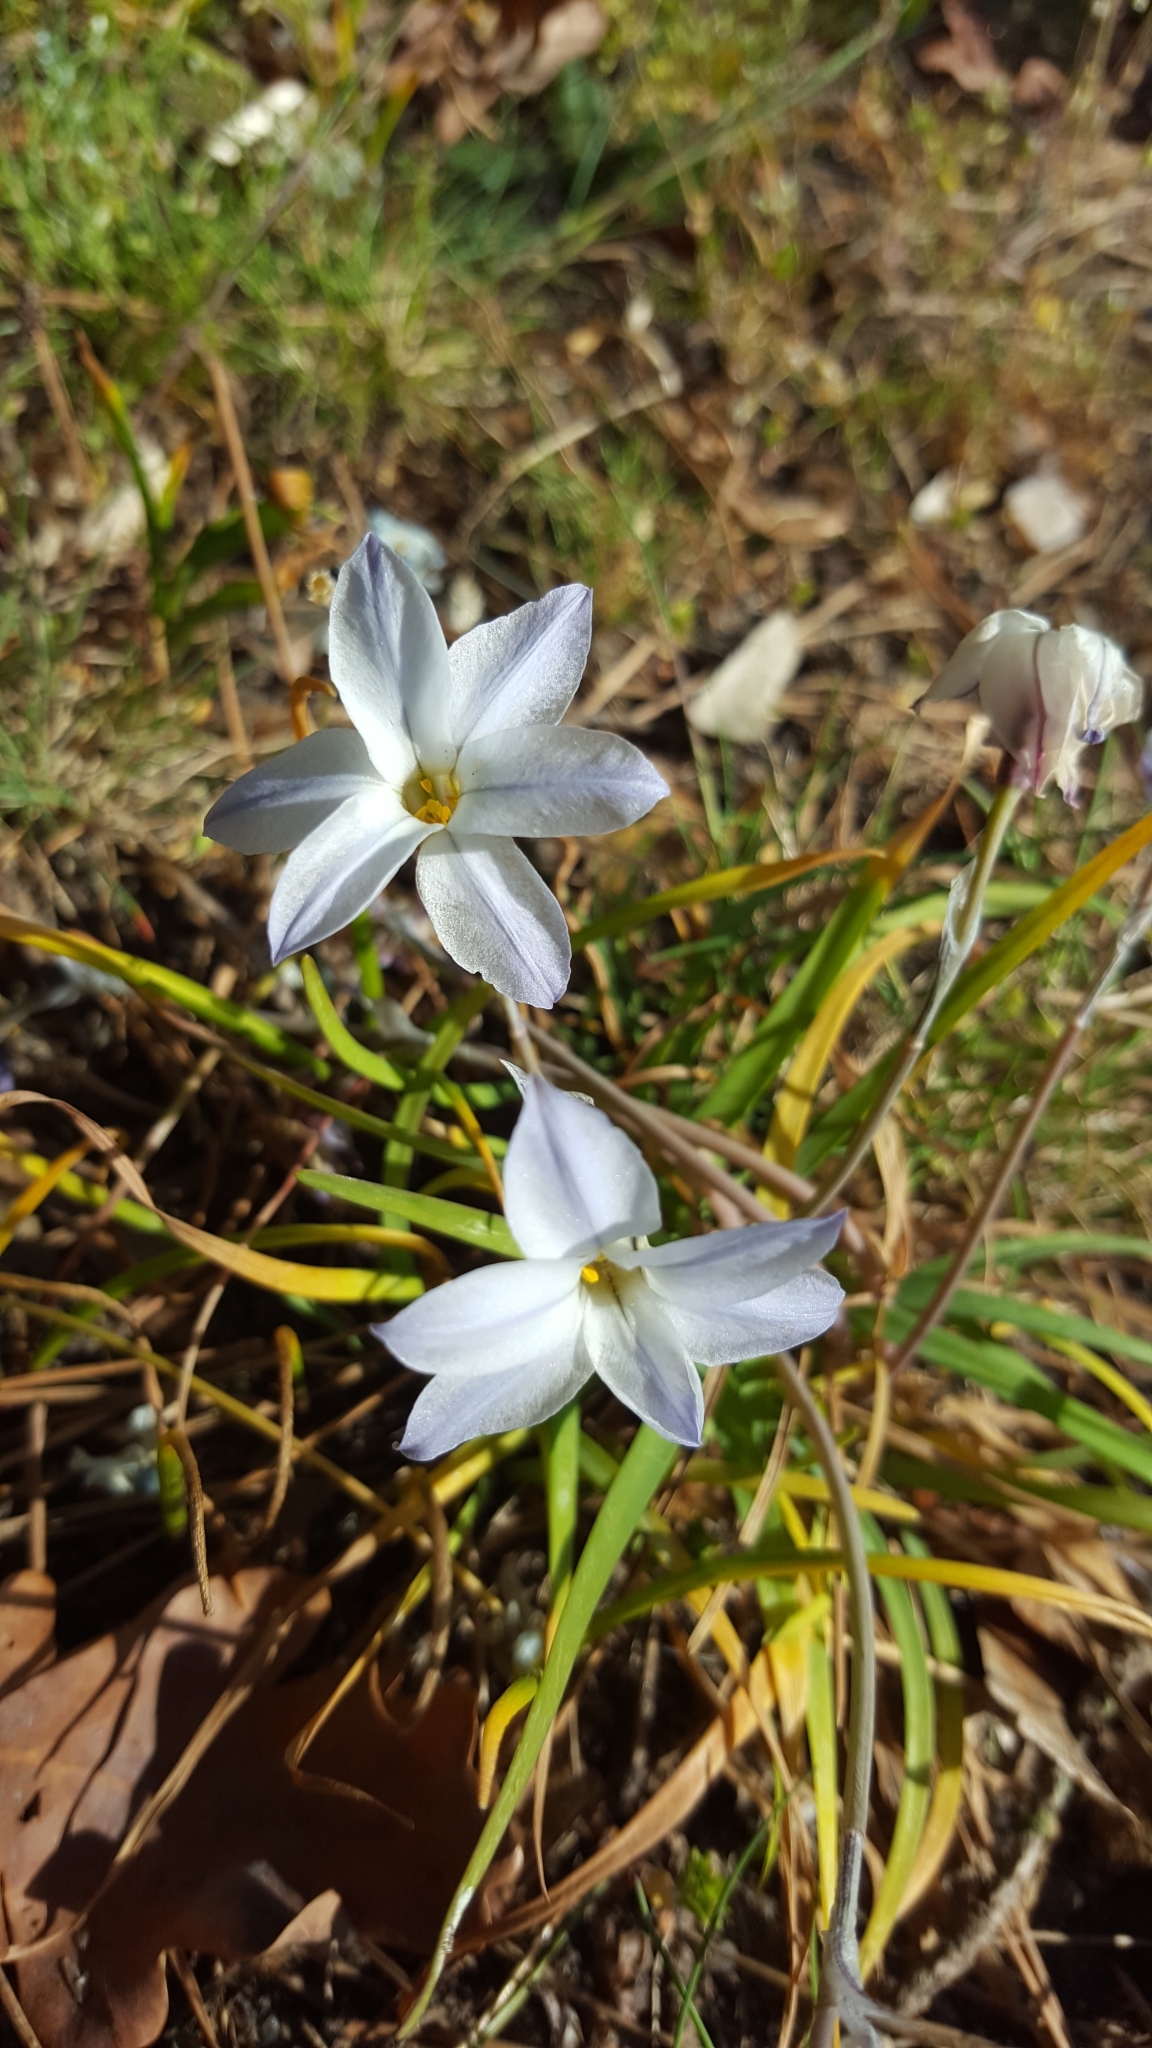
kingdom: Plantae
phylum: Tracheophyta
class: Liliopsida
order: Asparagales
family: Amaryllidaceae
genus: Ipheion
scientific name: Ipheion uniflorum
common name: Spring starflower
